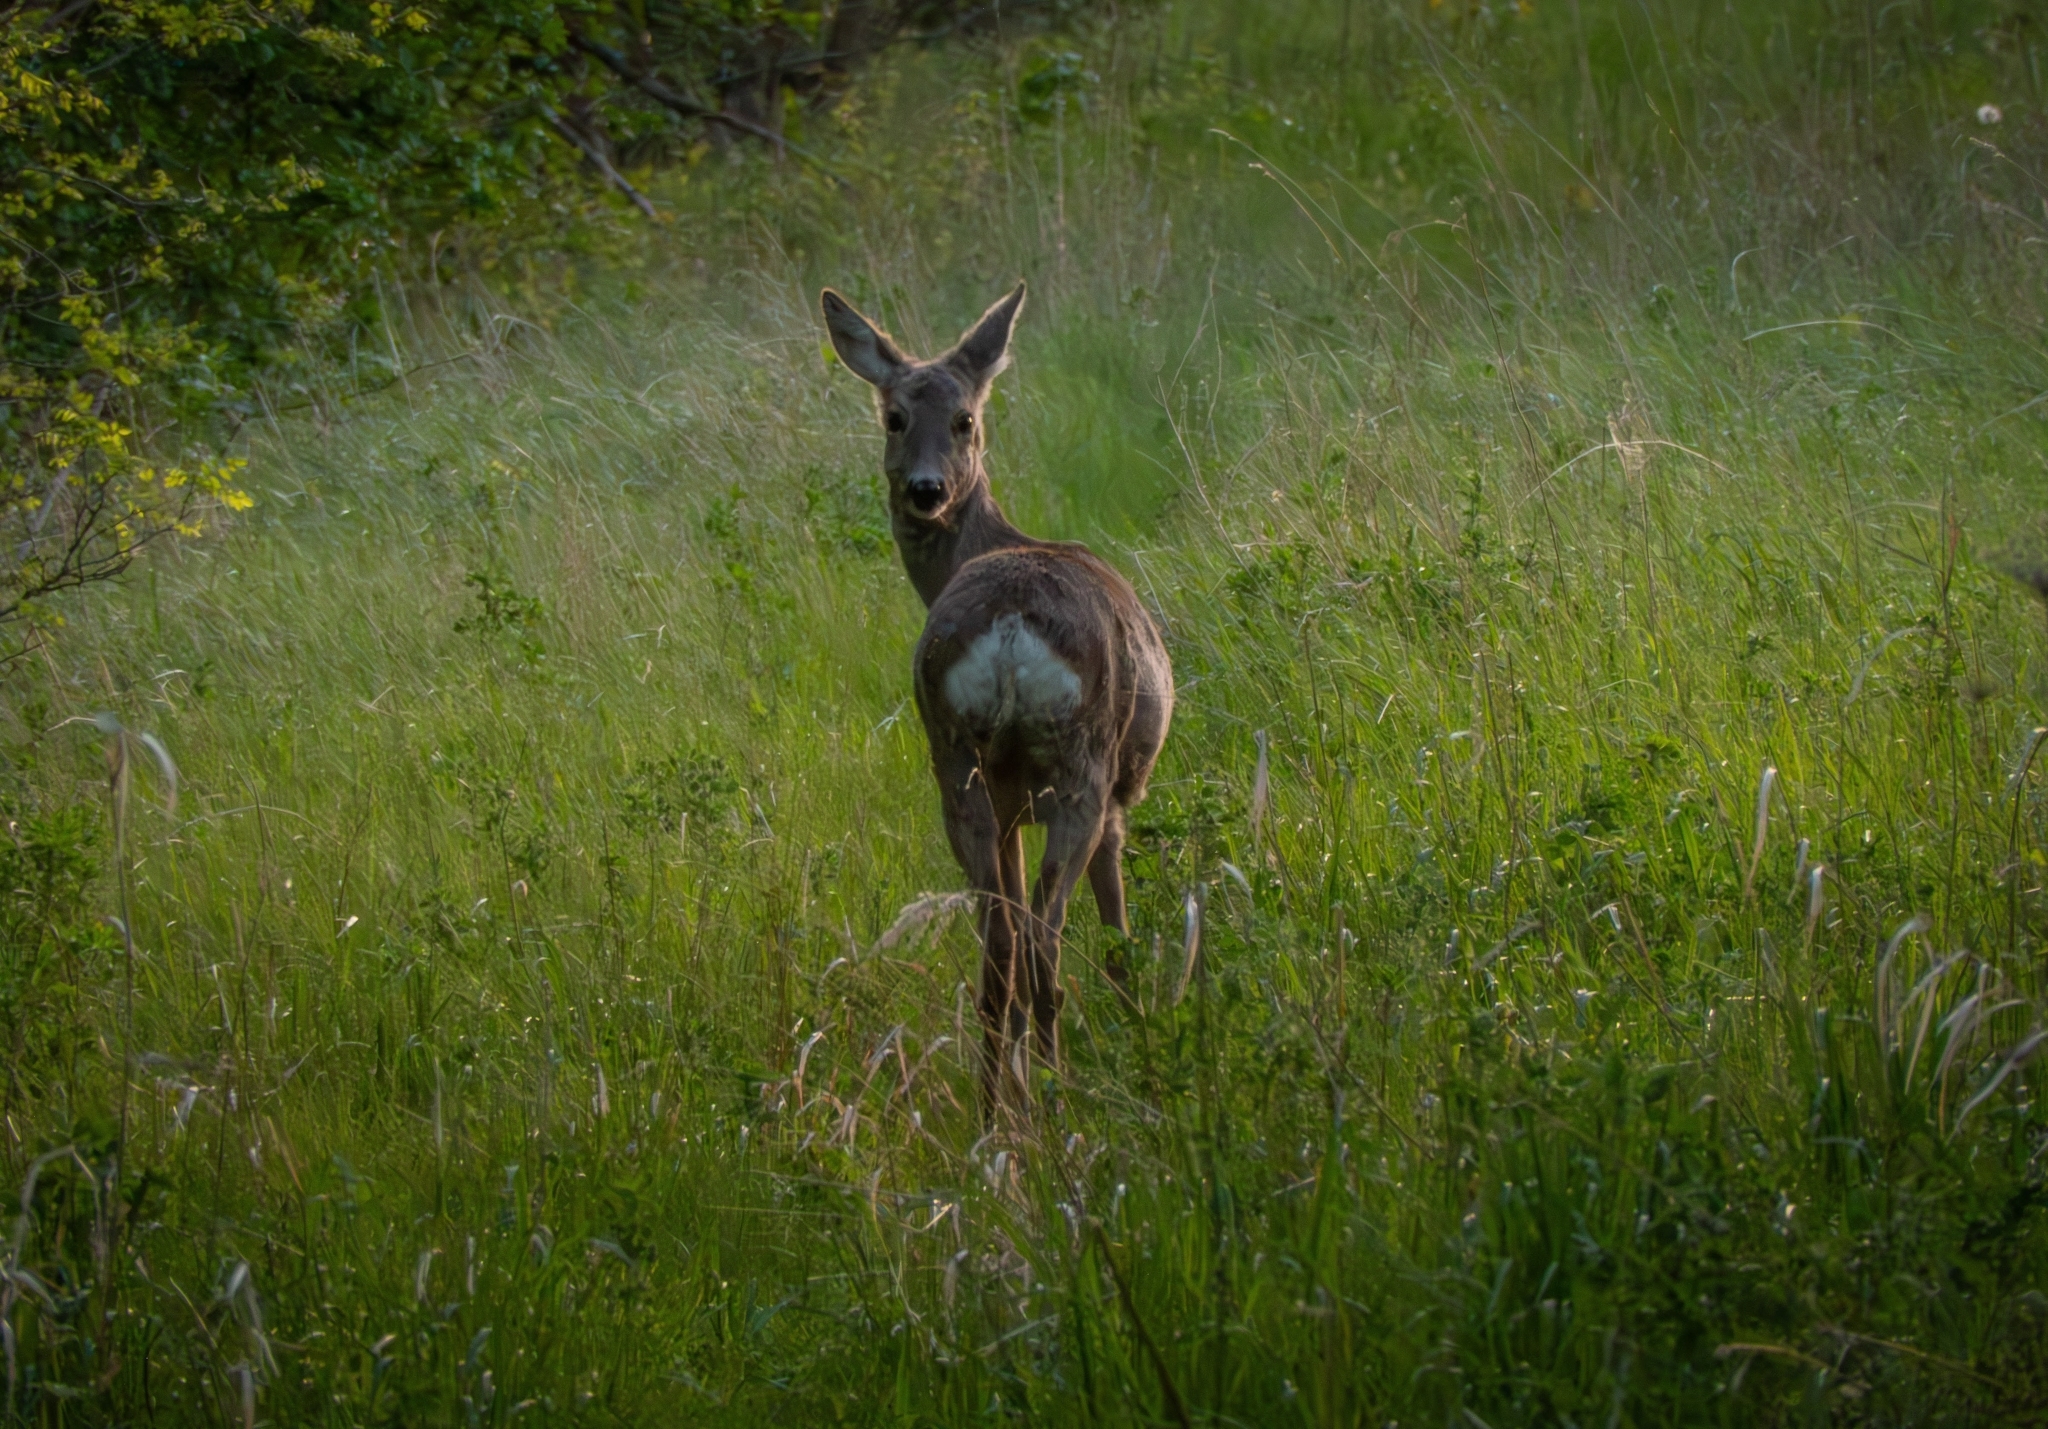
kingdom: Animalia
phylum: Chordata
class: Mammalia
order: Artiodactyla
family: Cervidae
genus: Capreolus
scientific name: Capreolus capreolus
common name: Western roe deer
